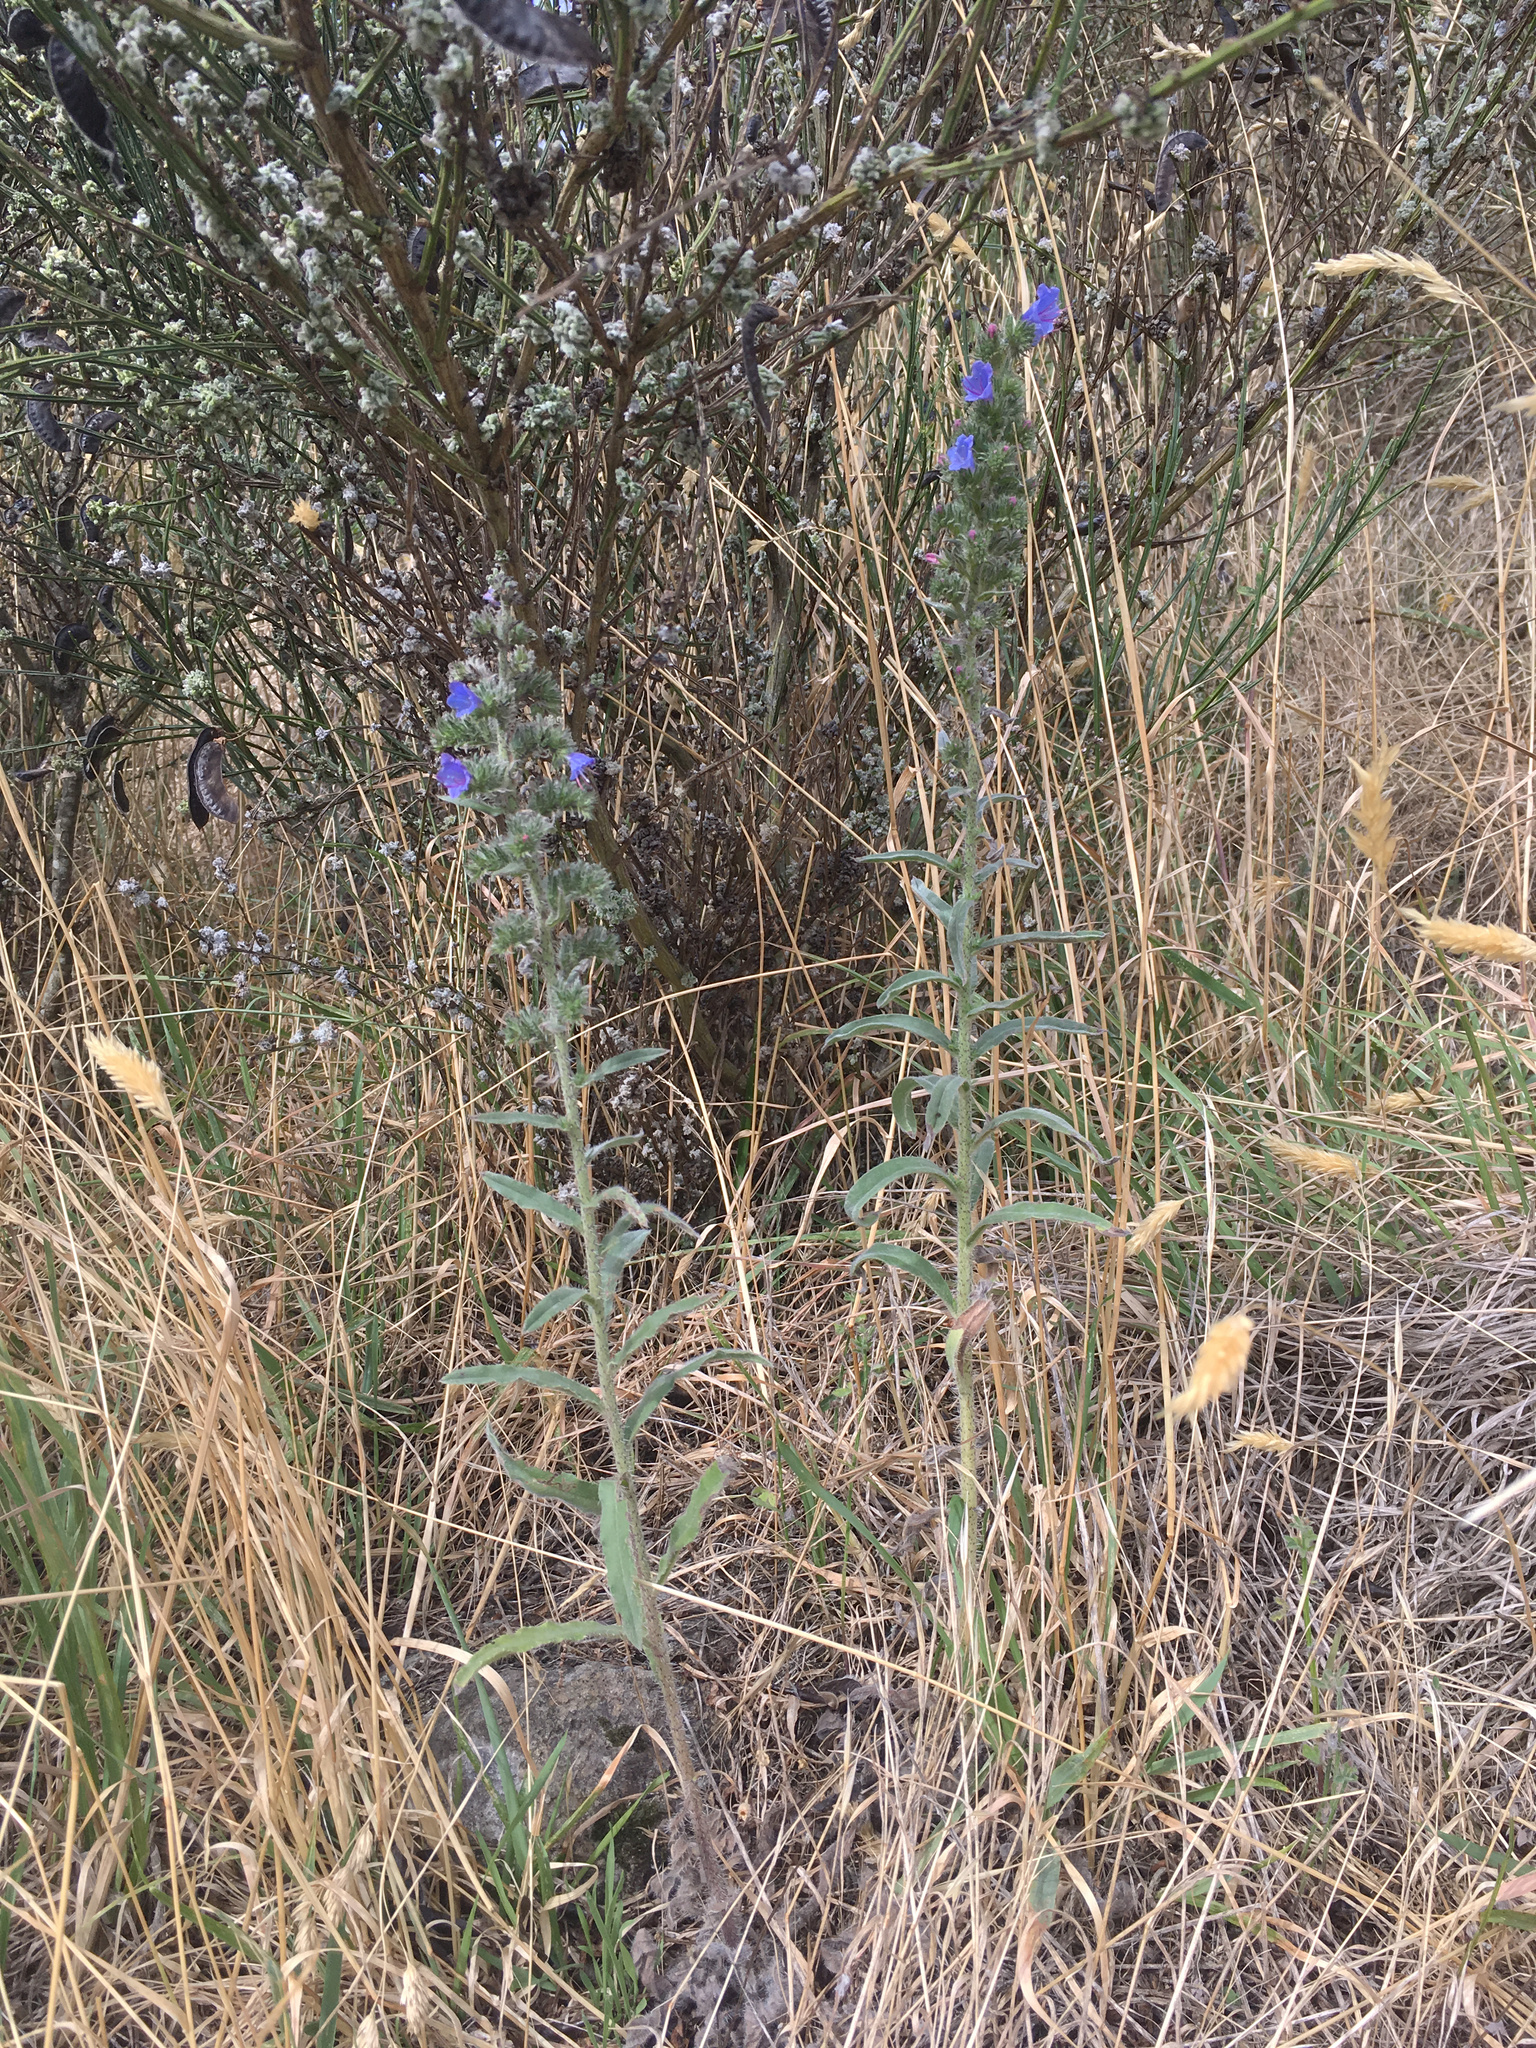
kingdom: Plantae
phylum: Tracheophyta
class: Magnoliopsida
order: Boraginales
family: Boraginaceae
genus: Echium
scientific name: Echium vulgare
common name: Common viper's bugloss
